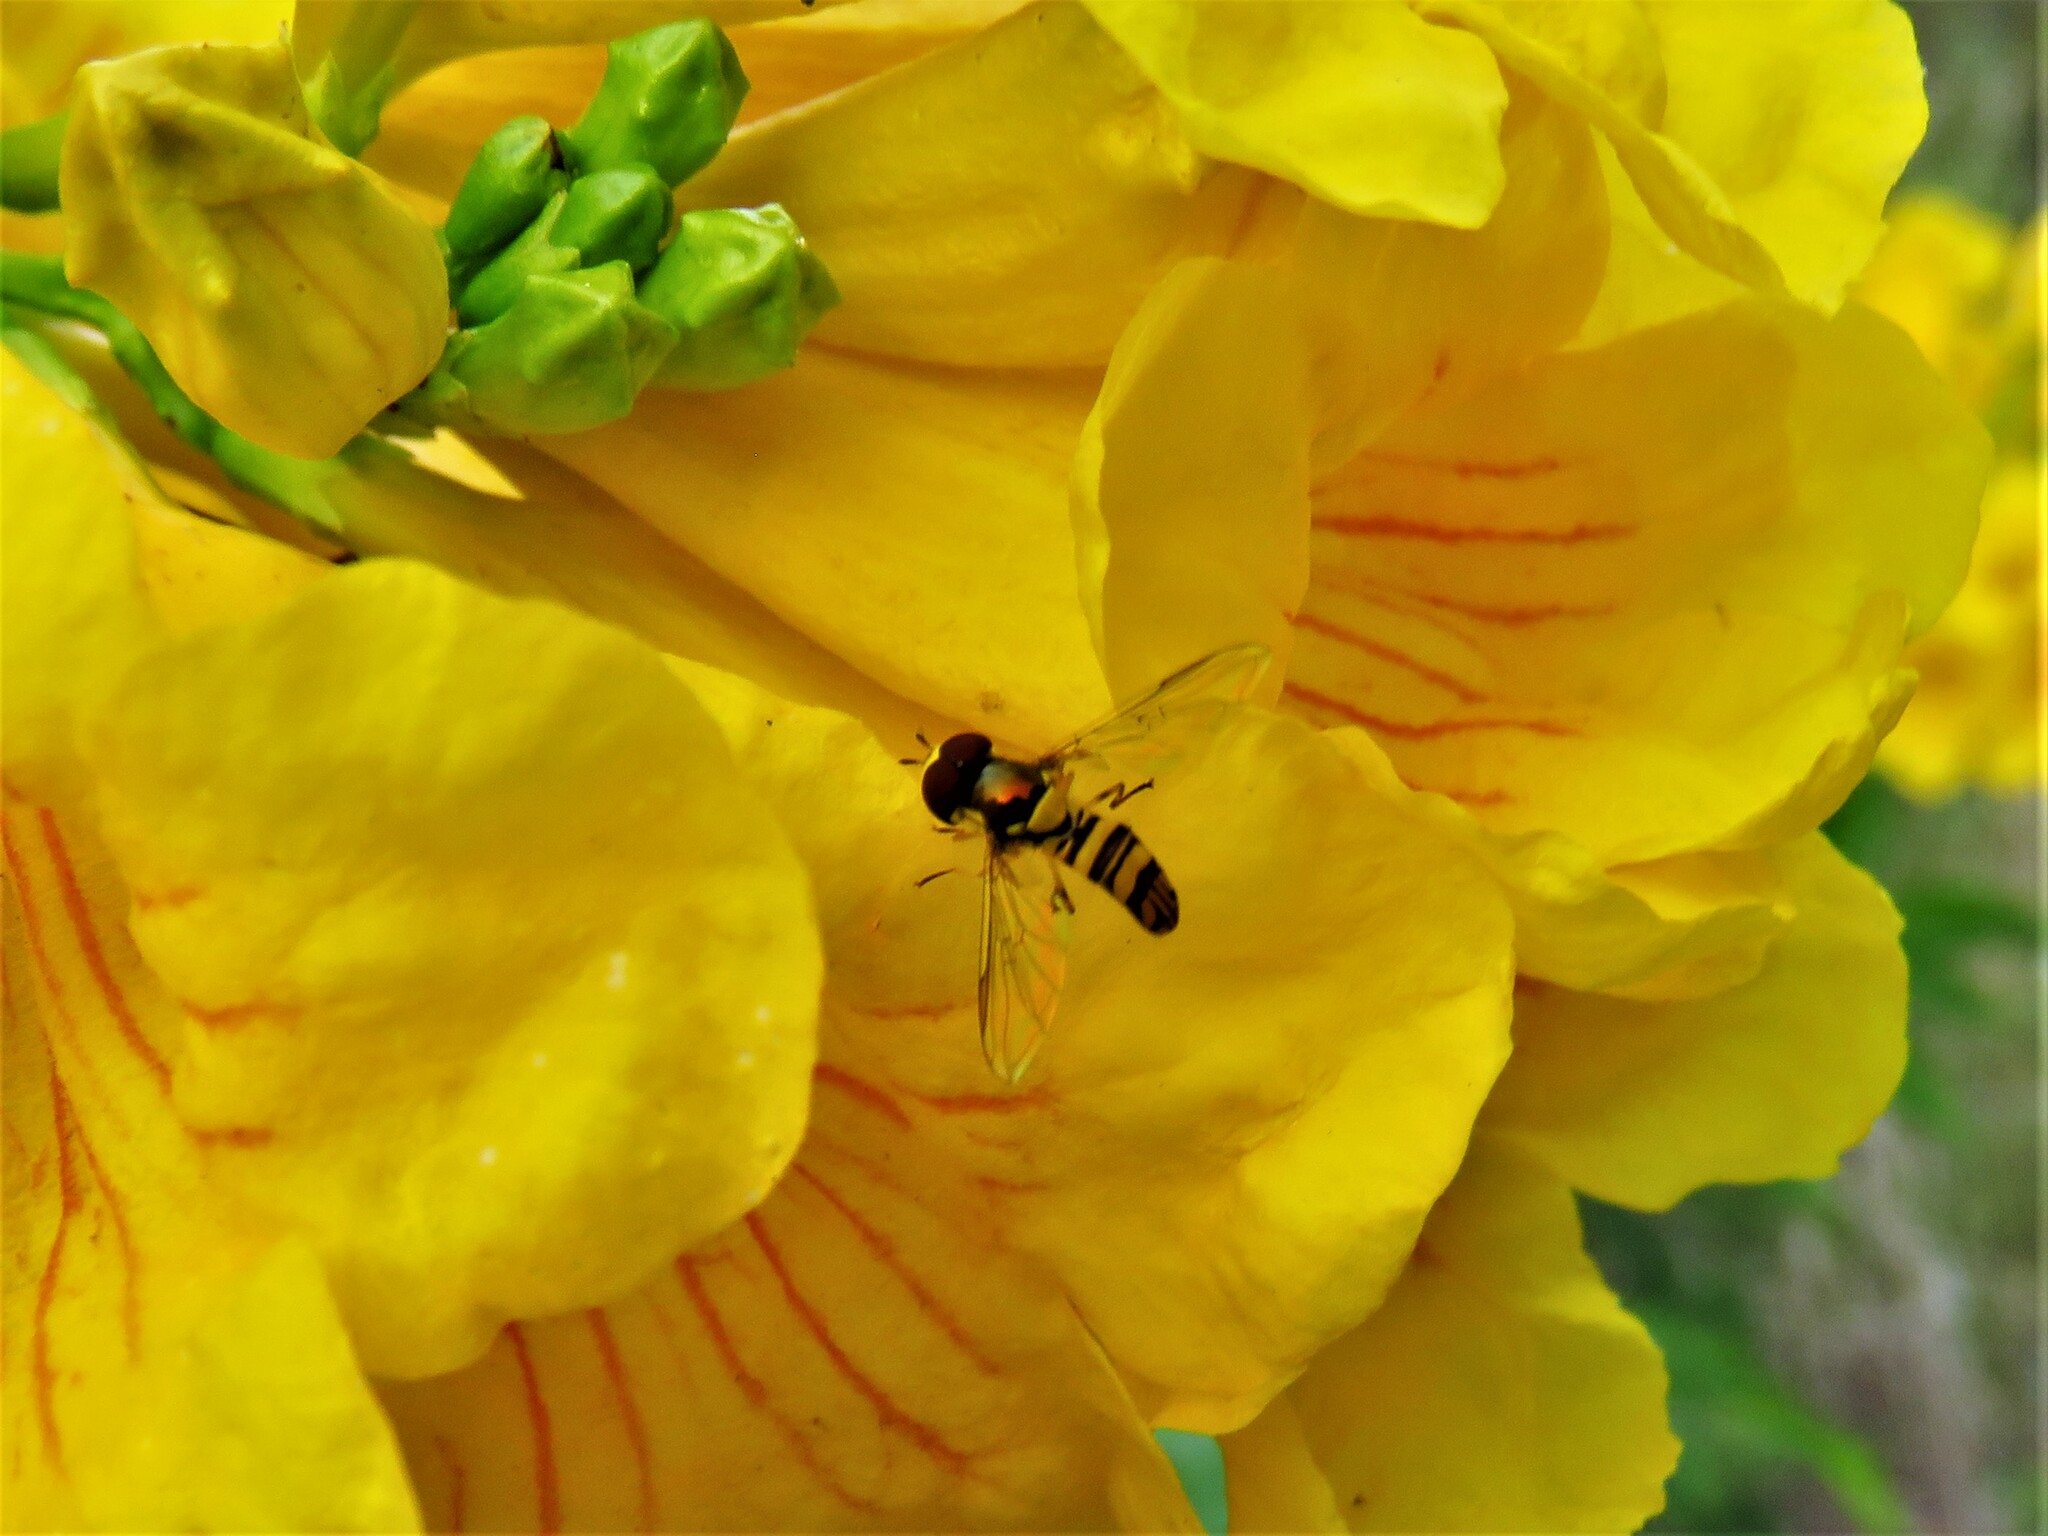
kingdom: Animalia
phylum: Arthropoda
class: Insecta
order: Diptera
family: Syrphidae
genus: Allograpta
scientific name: Allograpta obliqua
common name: Common oblique syrphid
